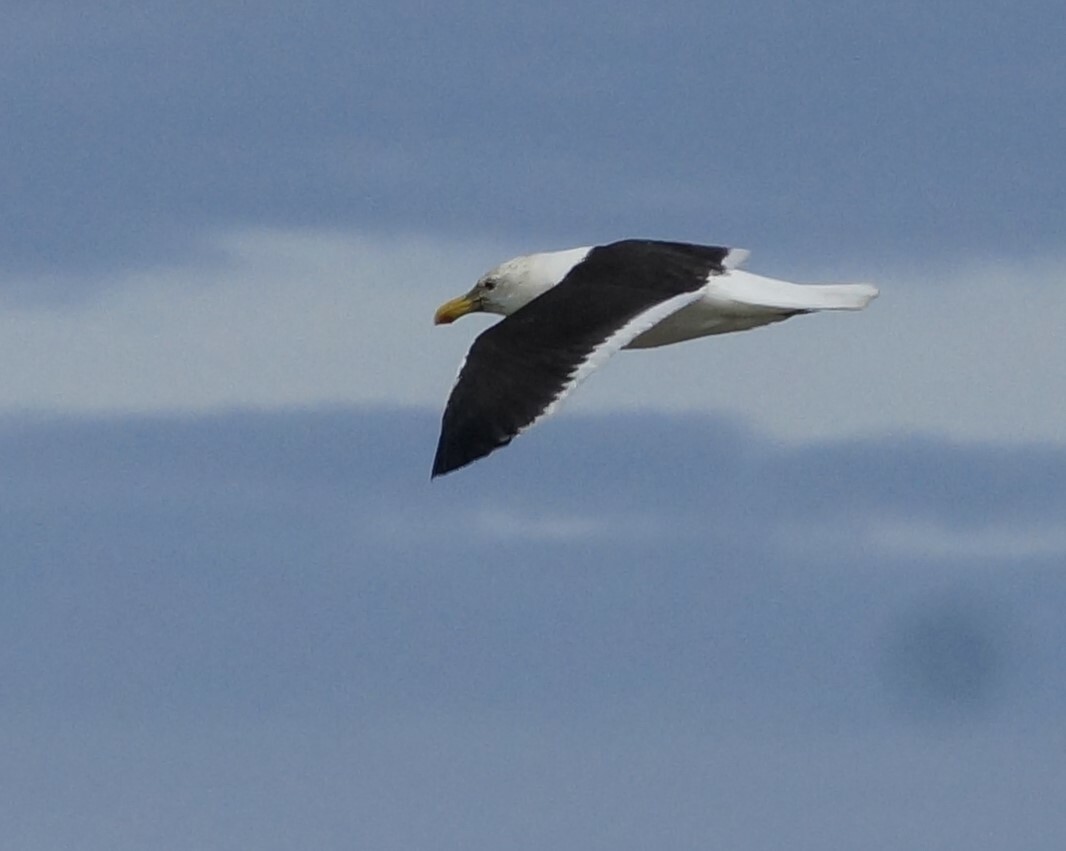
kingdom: Animalia
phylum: Chordata
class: Aves
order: Charadriiformes
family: Laridae
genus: Larus
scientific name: Larus dominicanus
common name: Kelp gull
